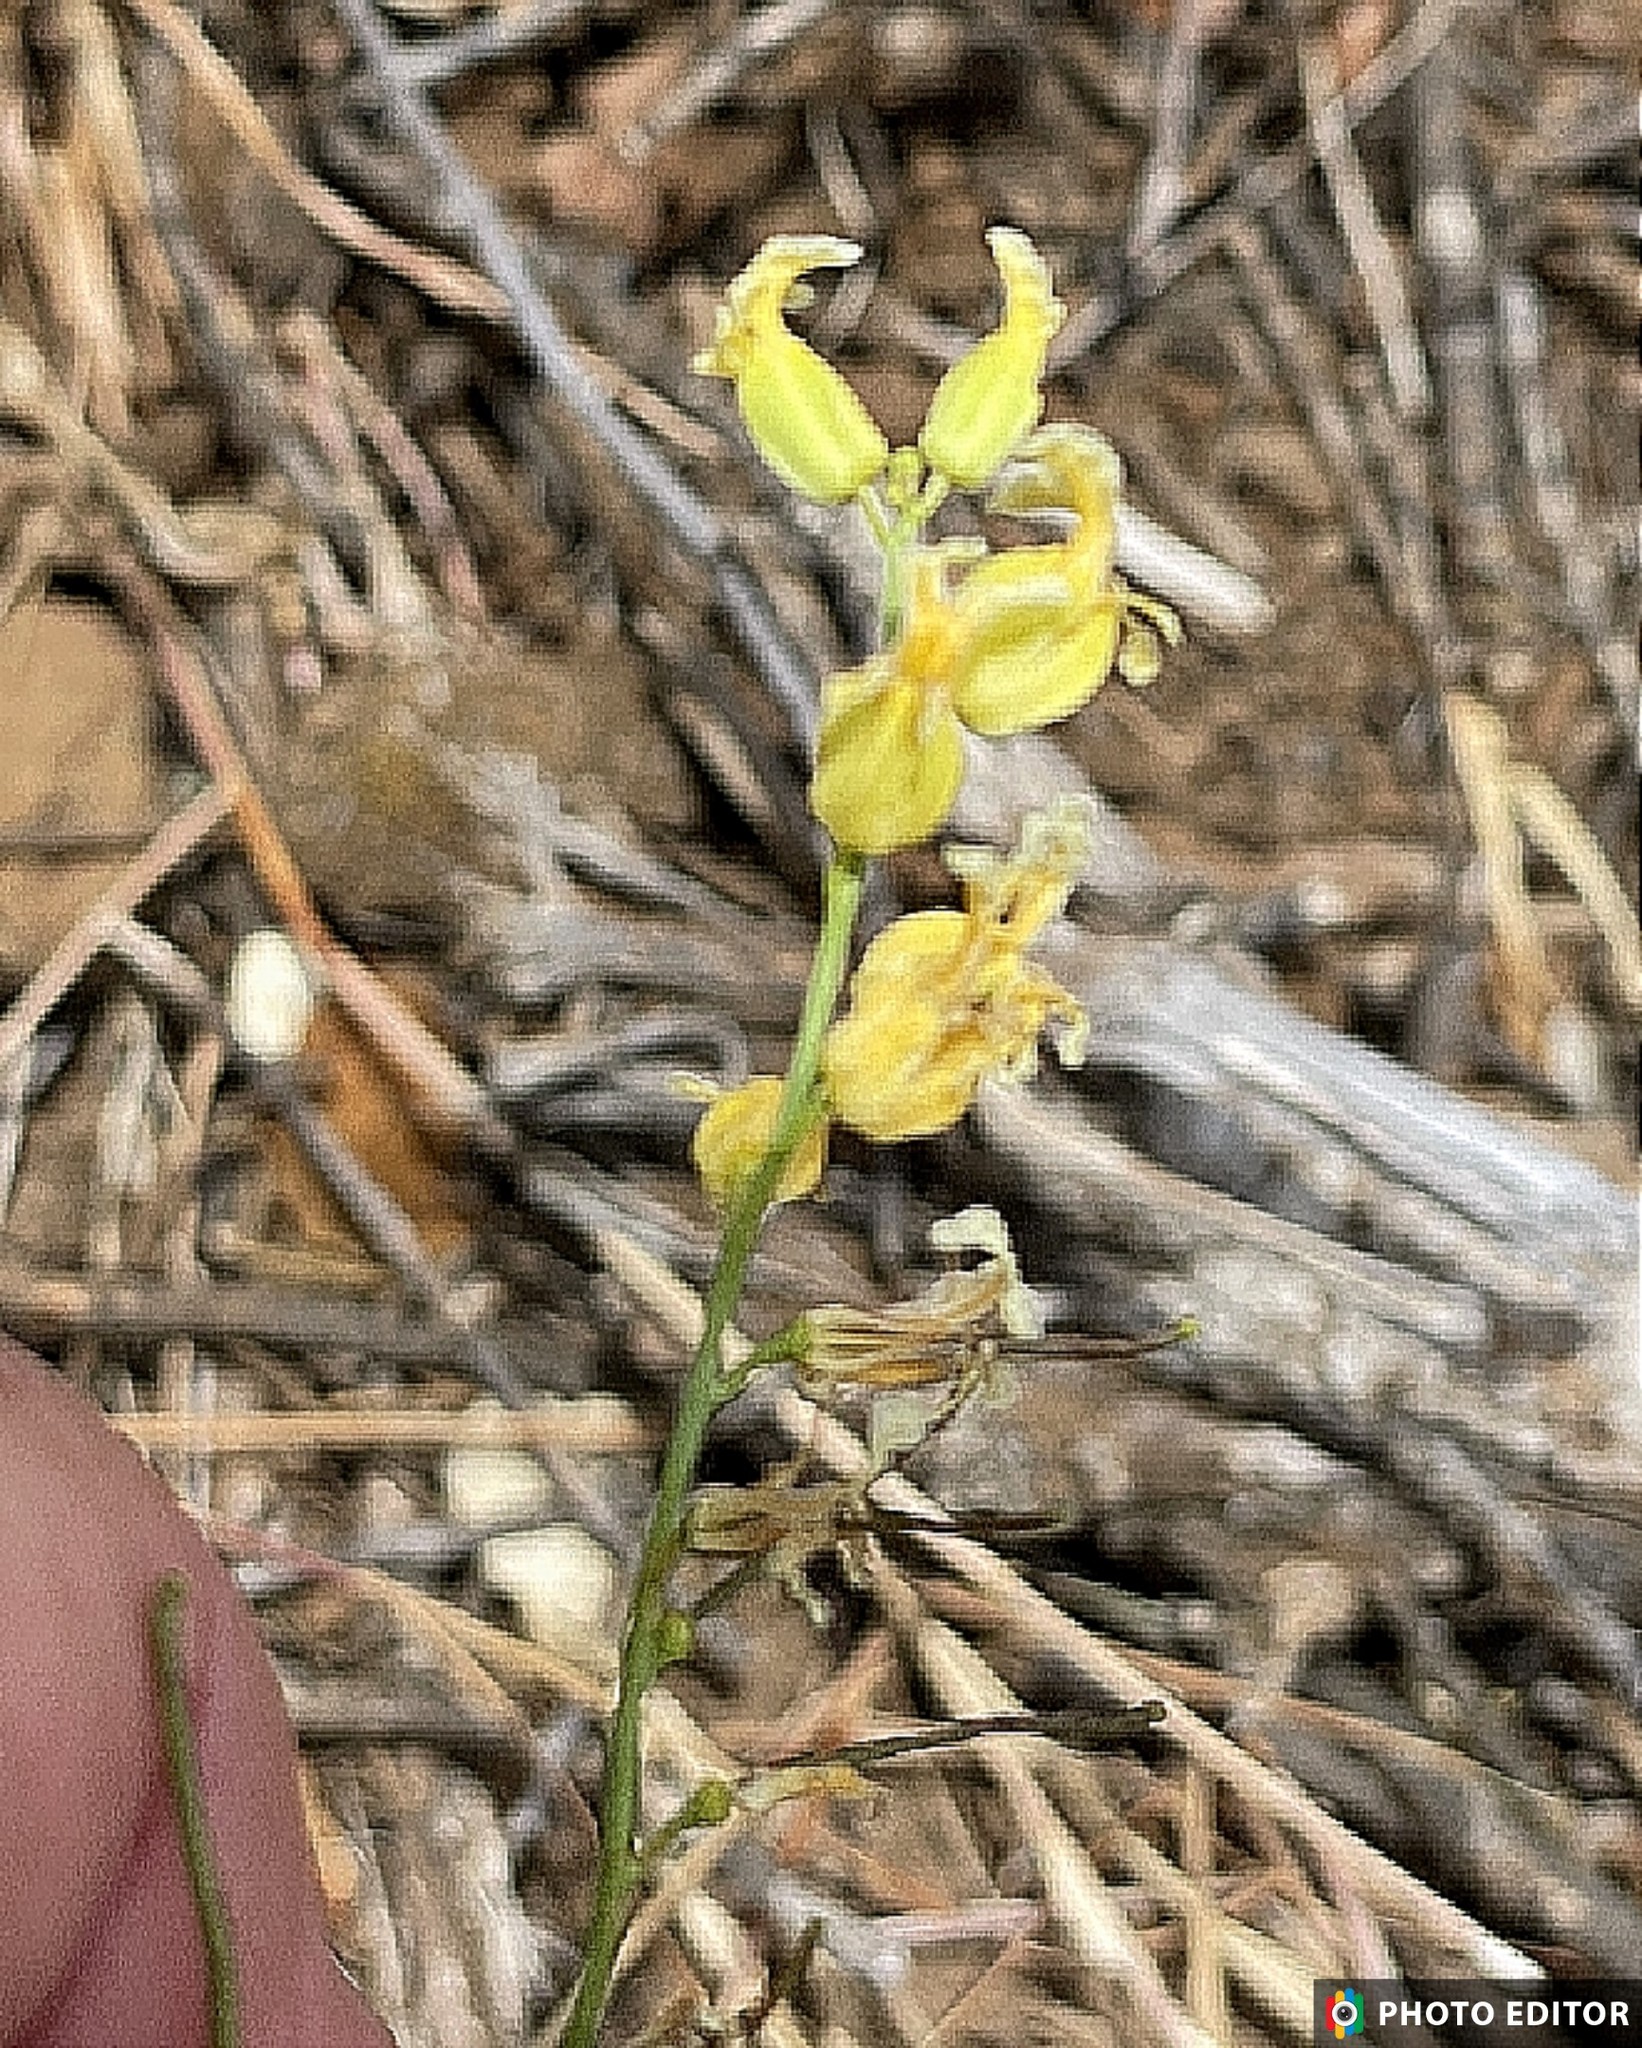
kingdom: Plantae
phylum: Tracheophyta
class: Magnoliopsida
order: Brassicales
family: Brassicaceae
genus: Streptanthus
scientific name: Streptanthus glandulosus
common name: Jewel-flower
